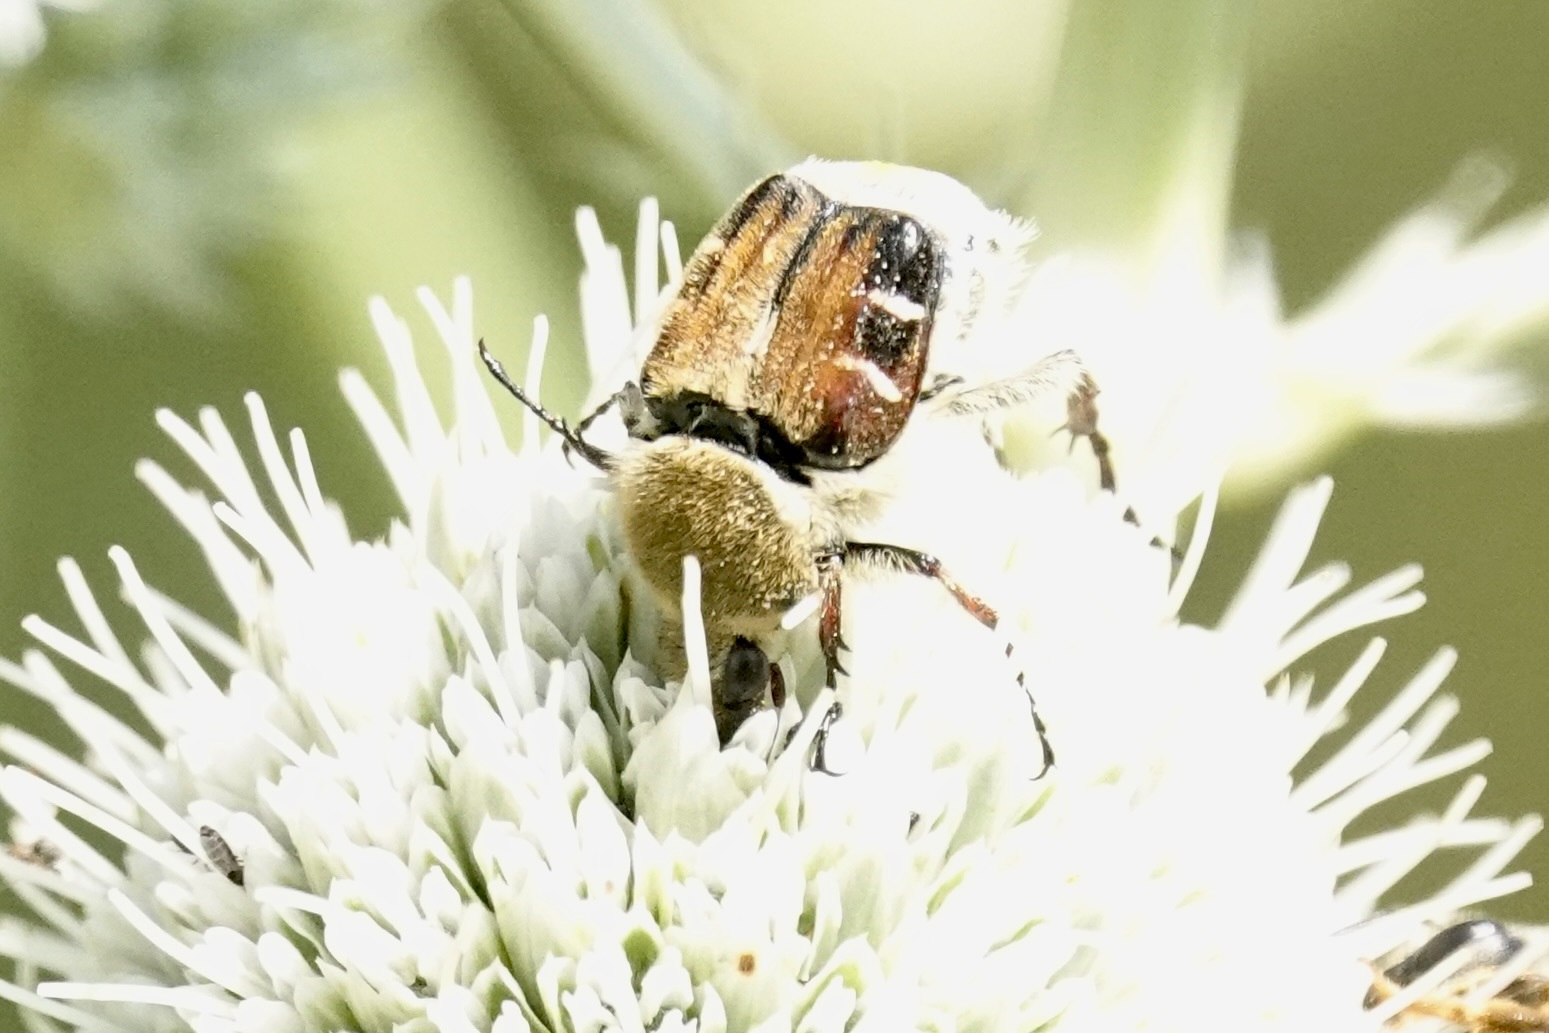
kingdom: Animalia
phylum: Arthropoda
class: Insecta
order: Coleoptera
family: Scarabaeidae
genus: Trichiotinus
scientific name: Trichiotinus piger
